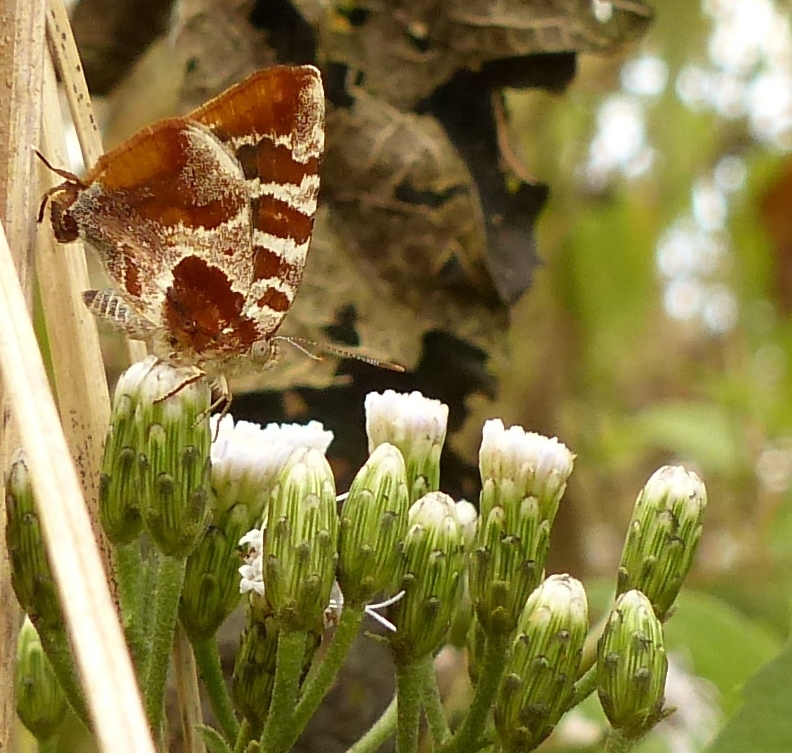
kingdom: Animalia
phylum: Arthropoda
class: Insecta
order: Lepidoptera
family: Lycaenidae
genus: Arawacus
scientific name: Arawacus ellida
